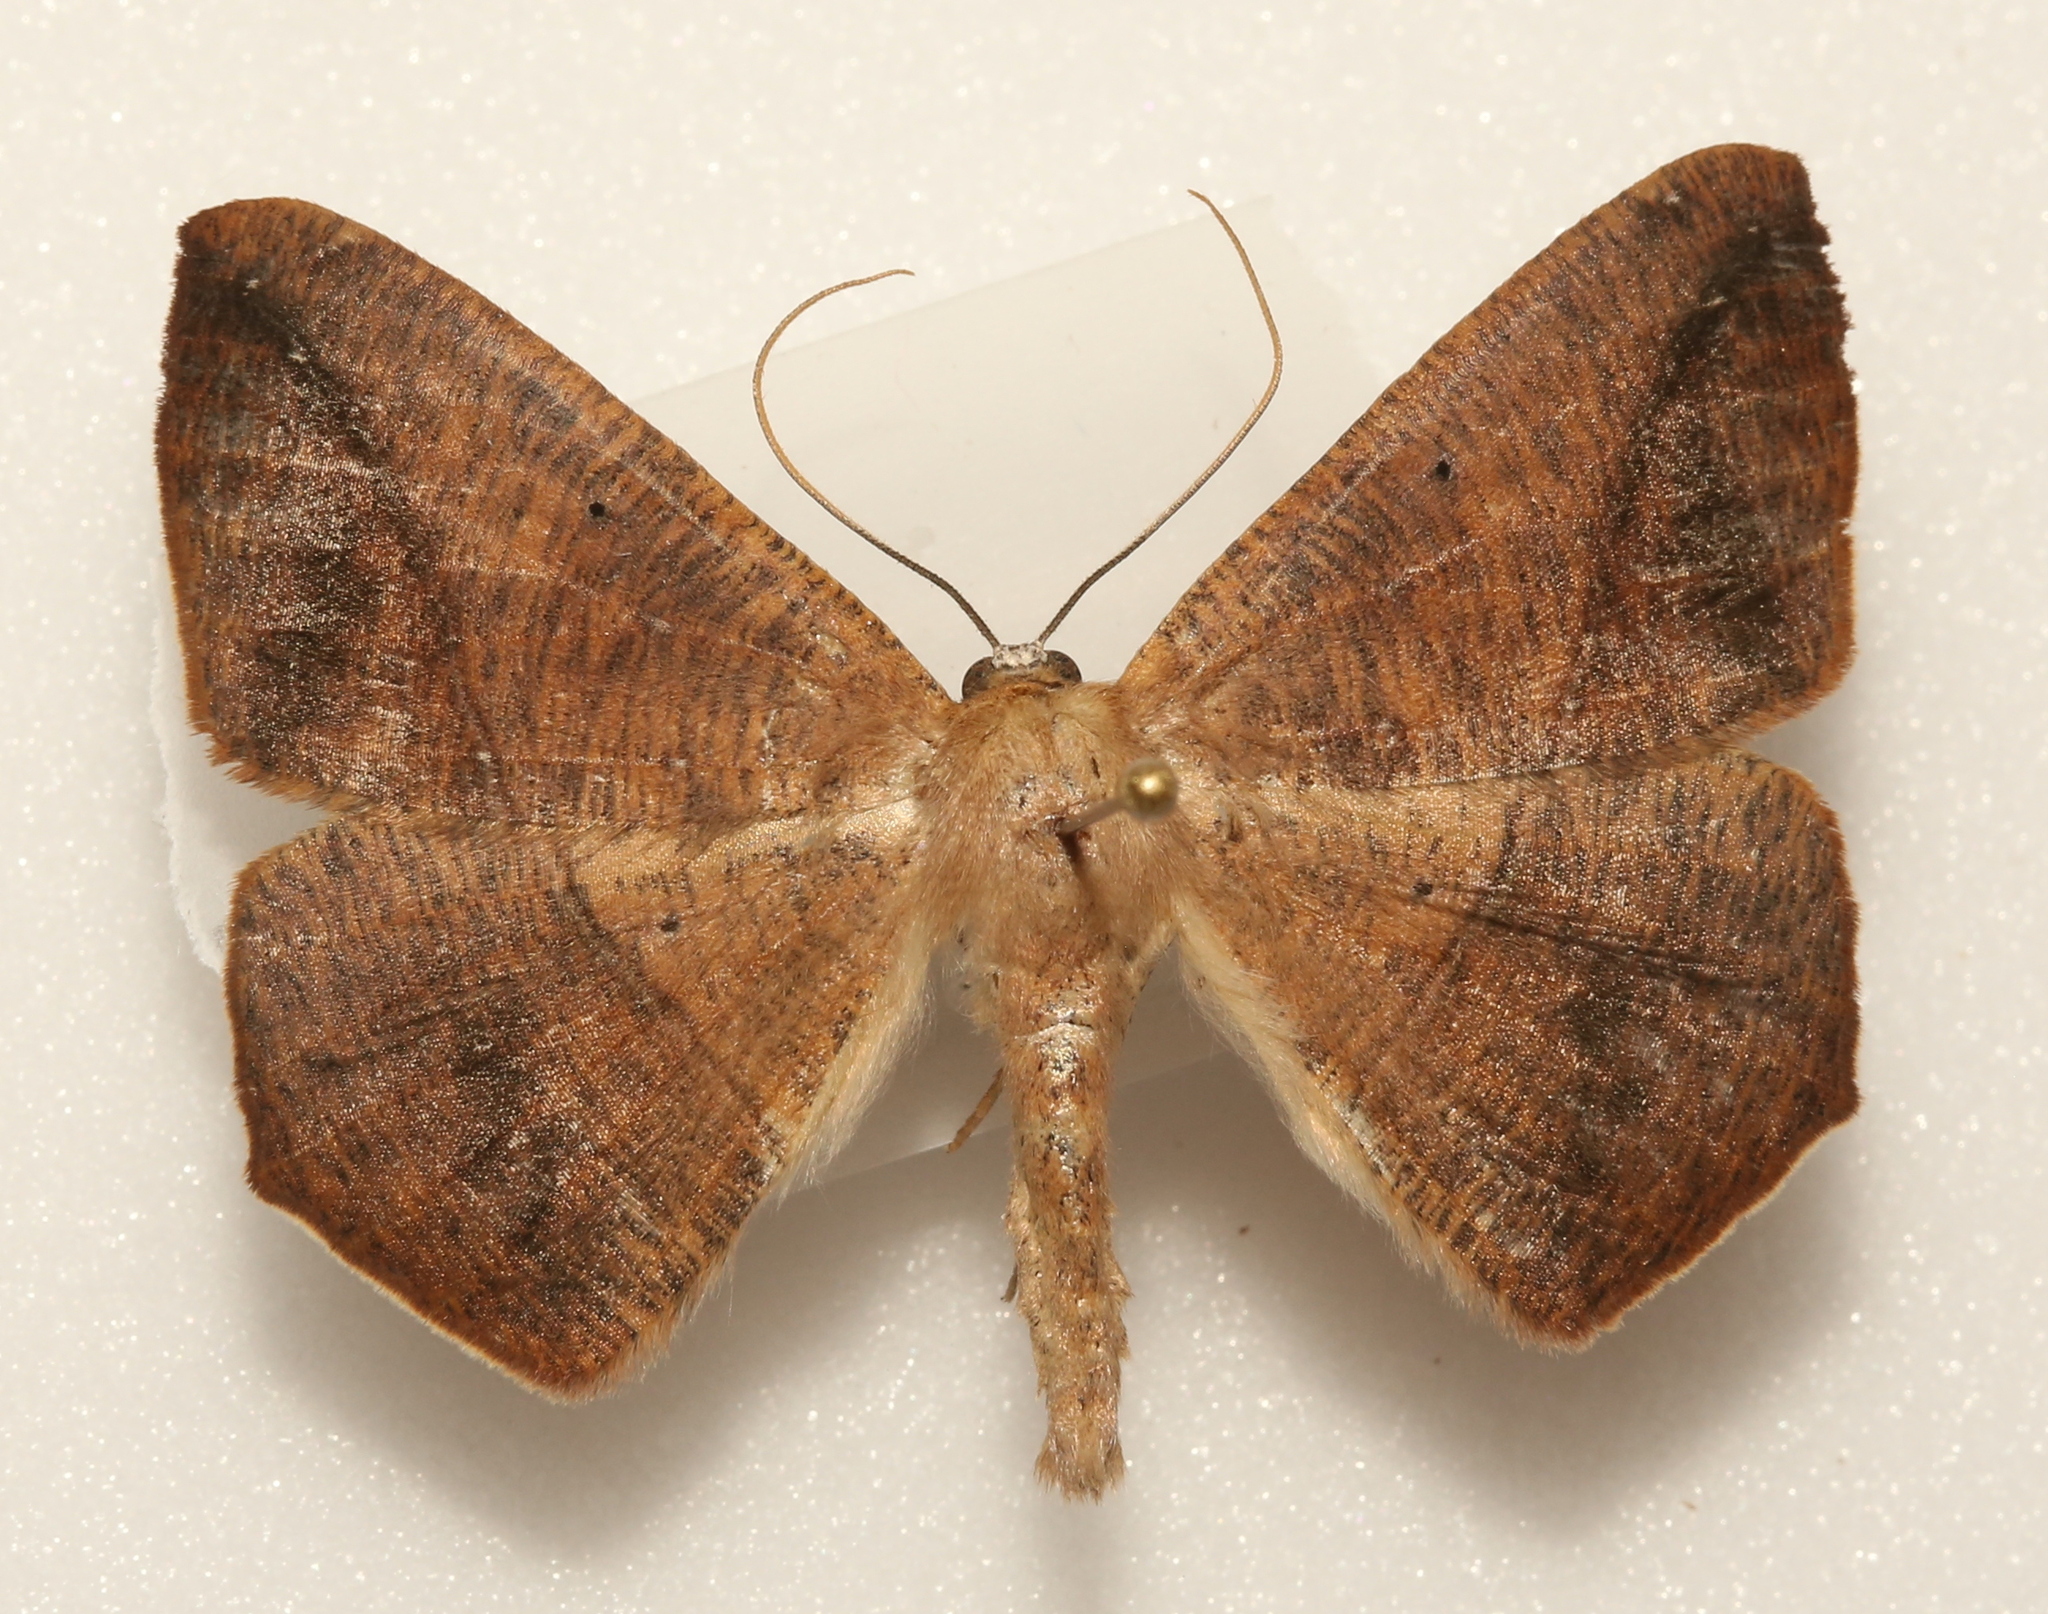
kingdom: Animalia
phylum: Arthropoda
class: Insecta
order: Lepidoptera
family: Geometridae
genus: Prochoerodes
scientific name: Prochoerodes lineola
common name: Large maple spanworm
